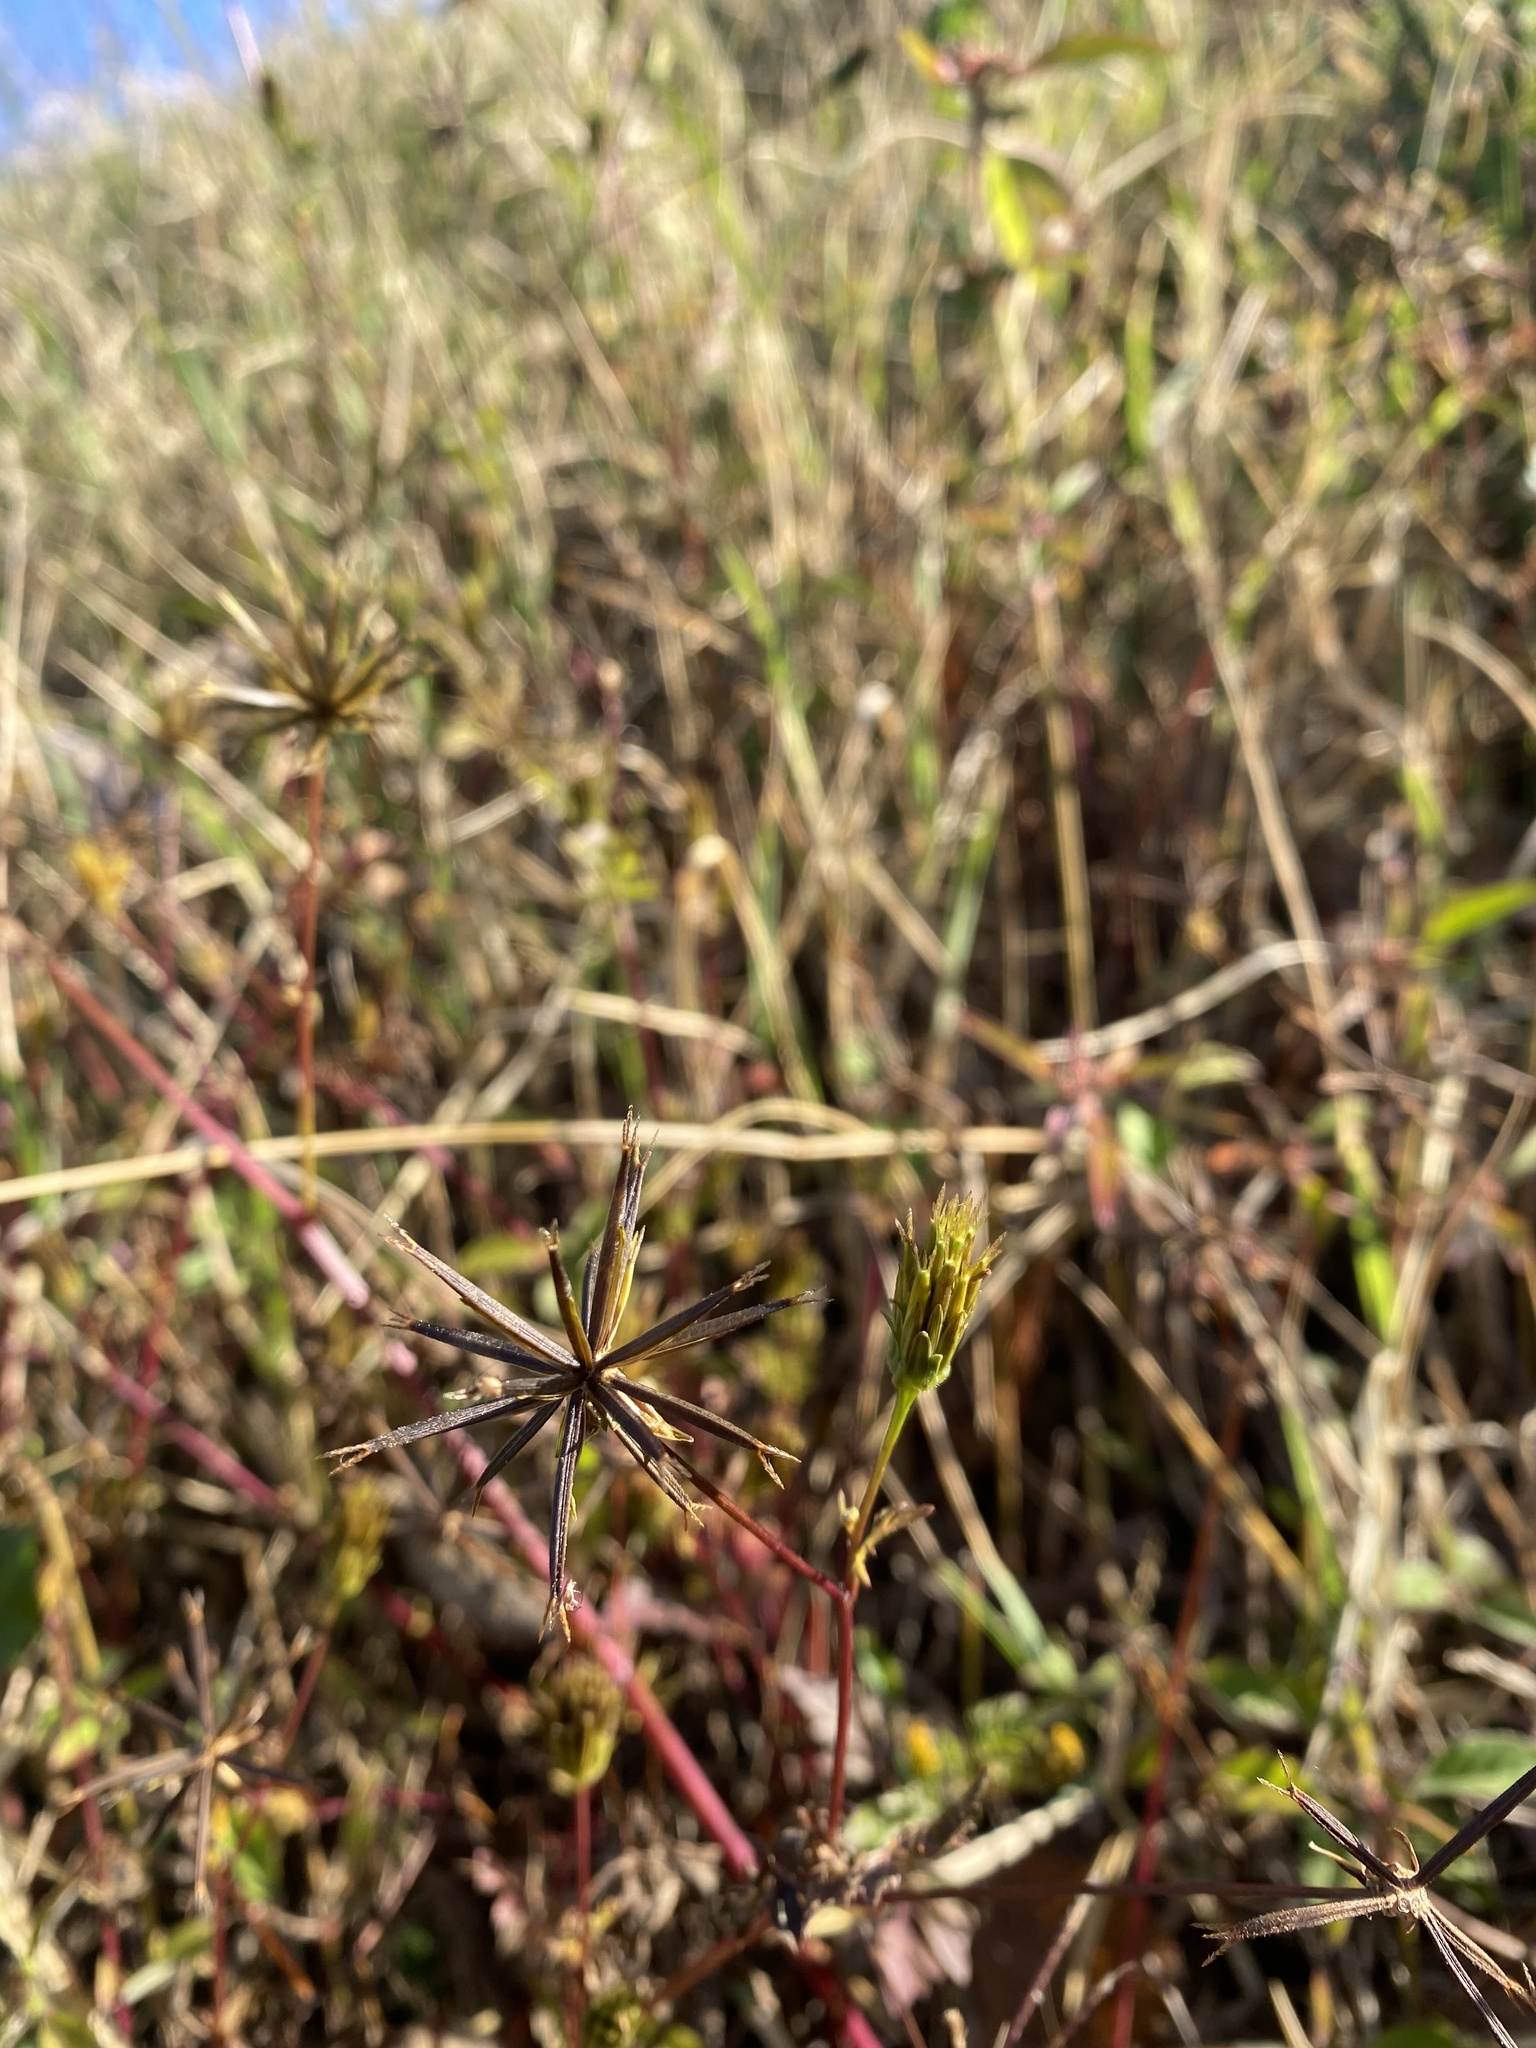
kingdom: Plantae
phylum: Tracheophyta
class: Magnoliopsida
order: Asterales
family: Asteraceae
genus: Bidens
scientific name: Bidens bipinnata
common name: Spanish-needles
